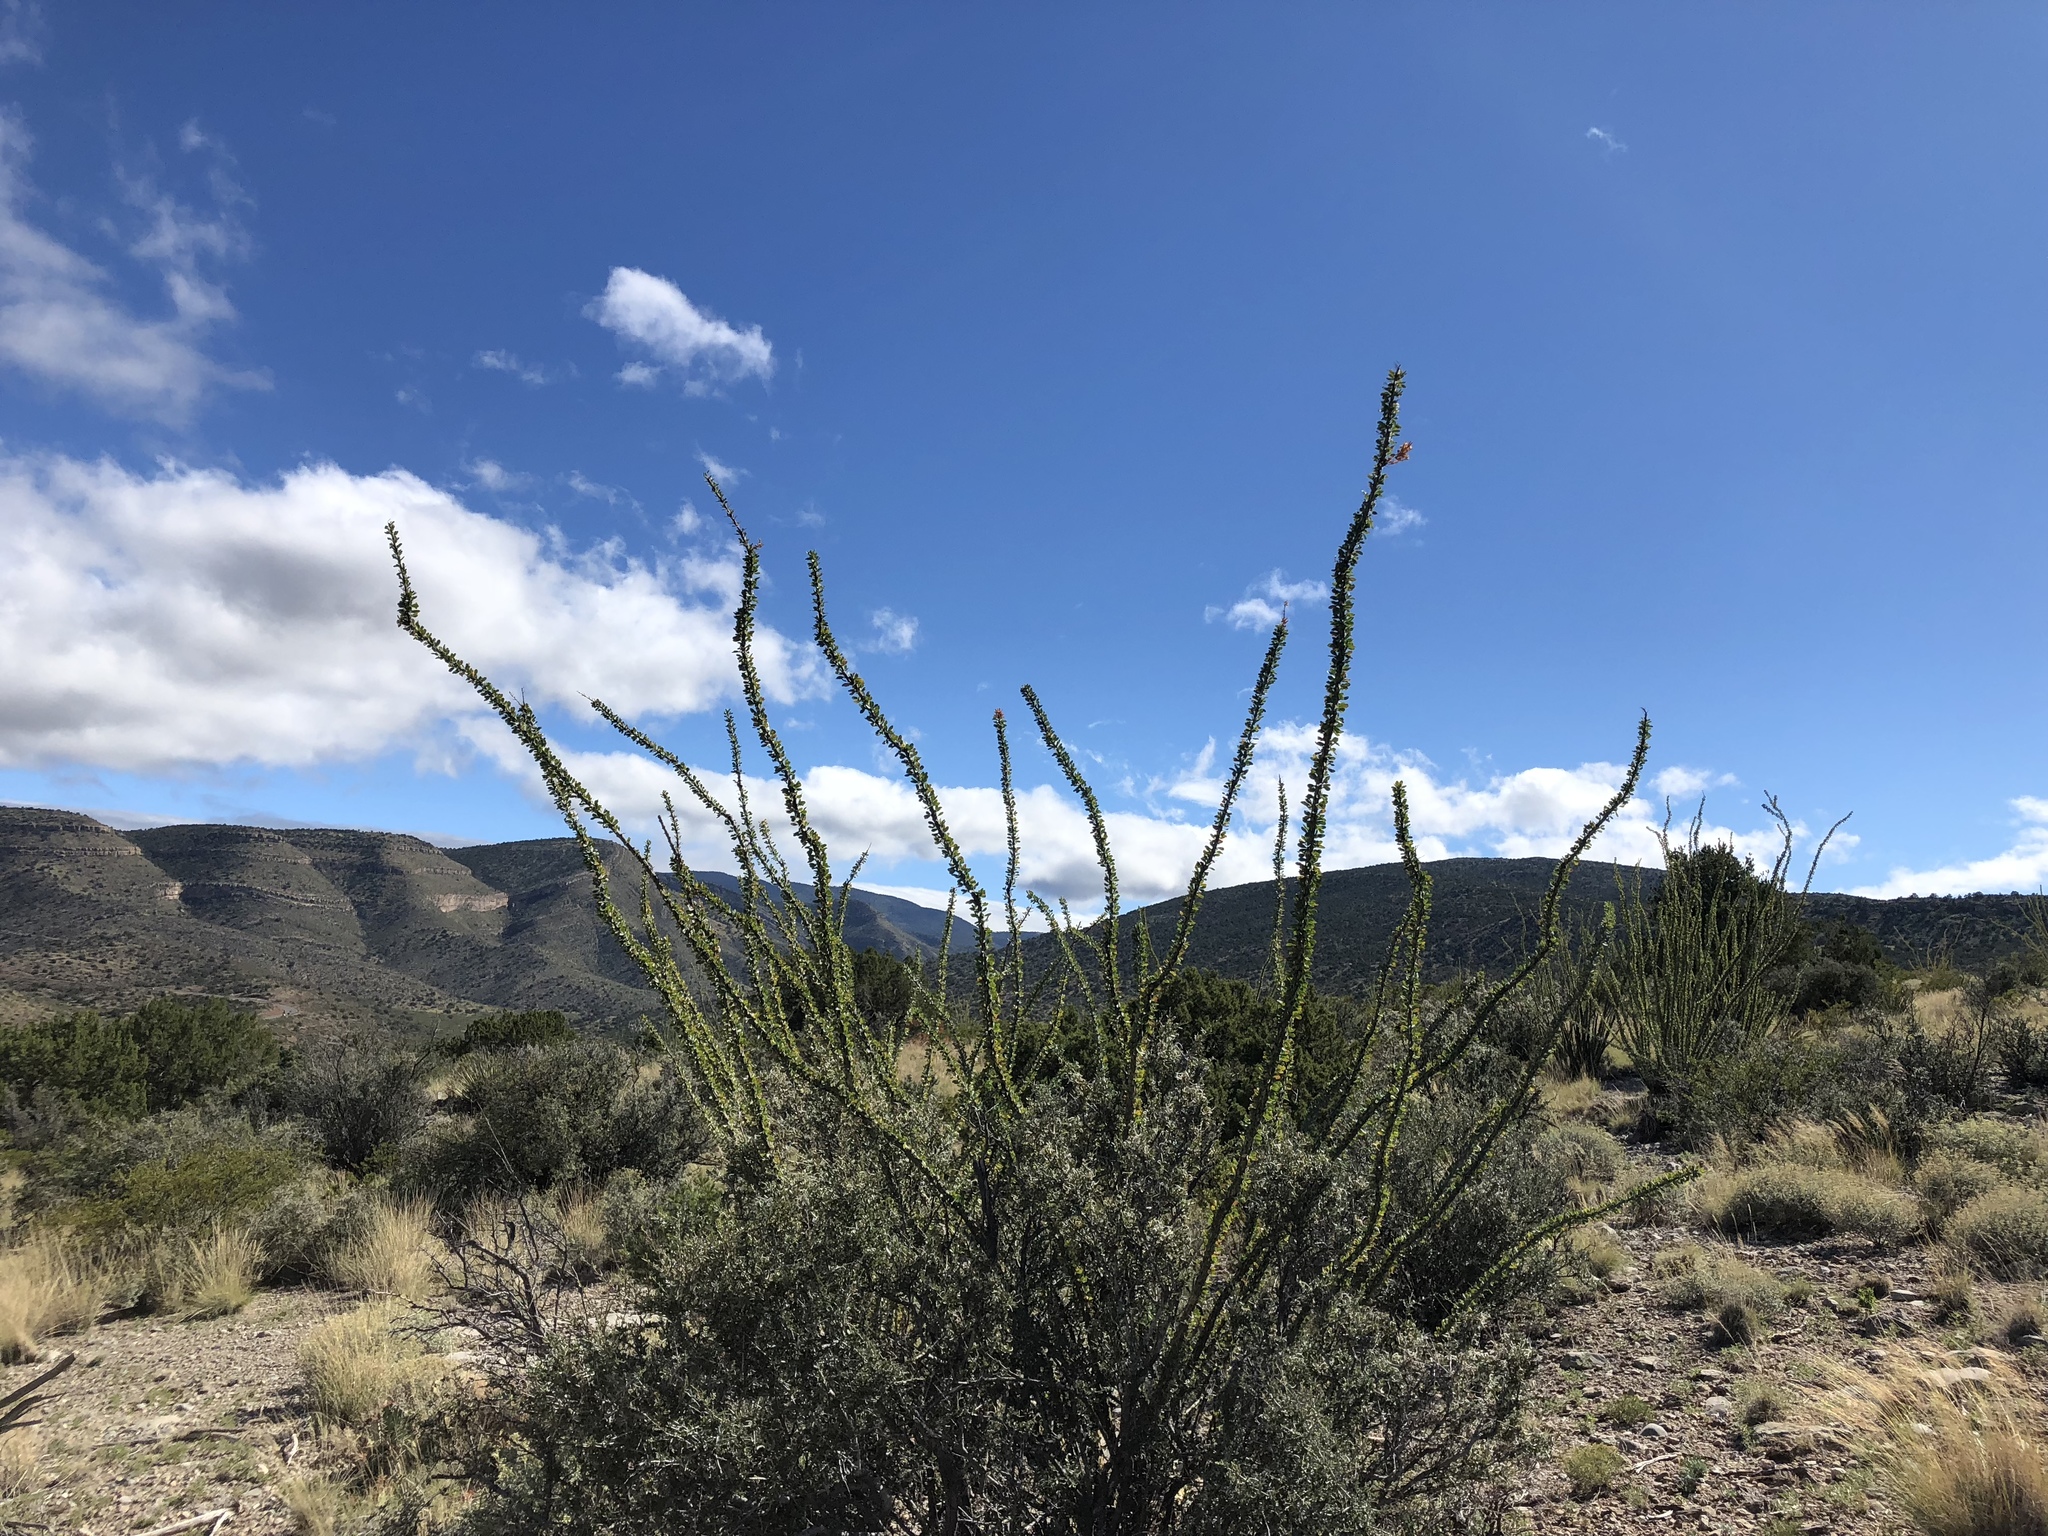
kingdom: Plantae
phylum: Tracheophyta
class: Magnoliopsida
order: Ericales
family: Fouquieriaceae
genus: Fouquieria
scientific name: Fouquieria splendens
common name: Vine-cactus
